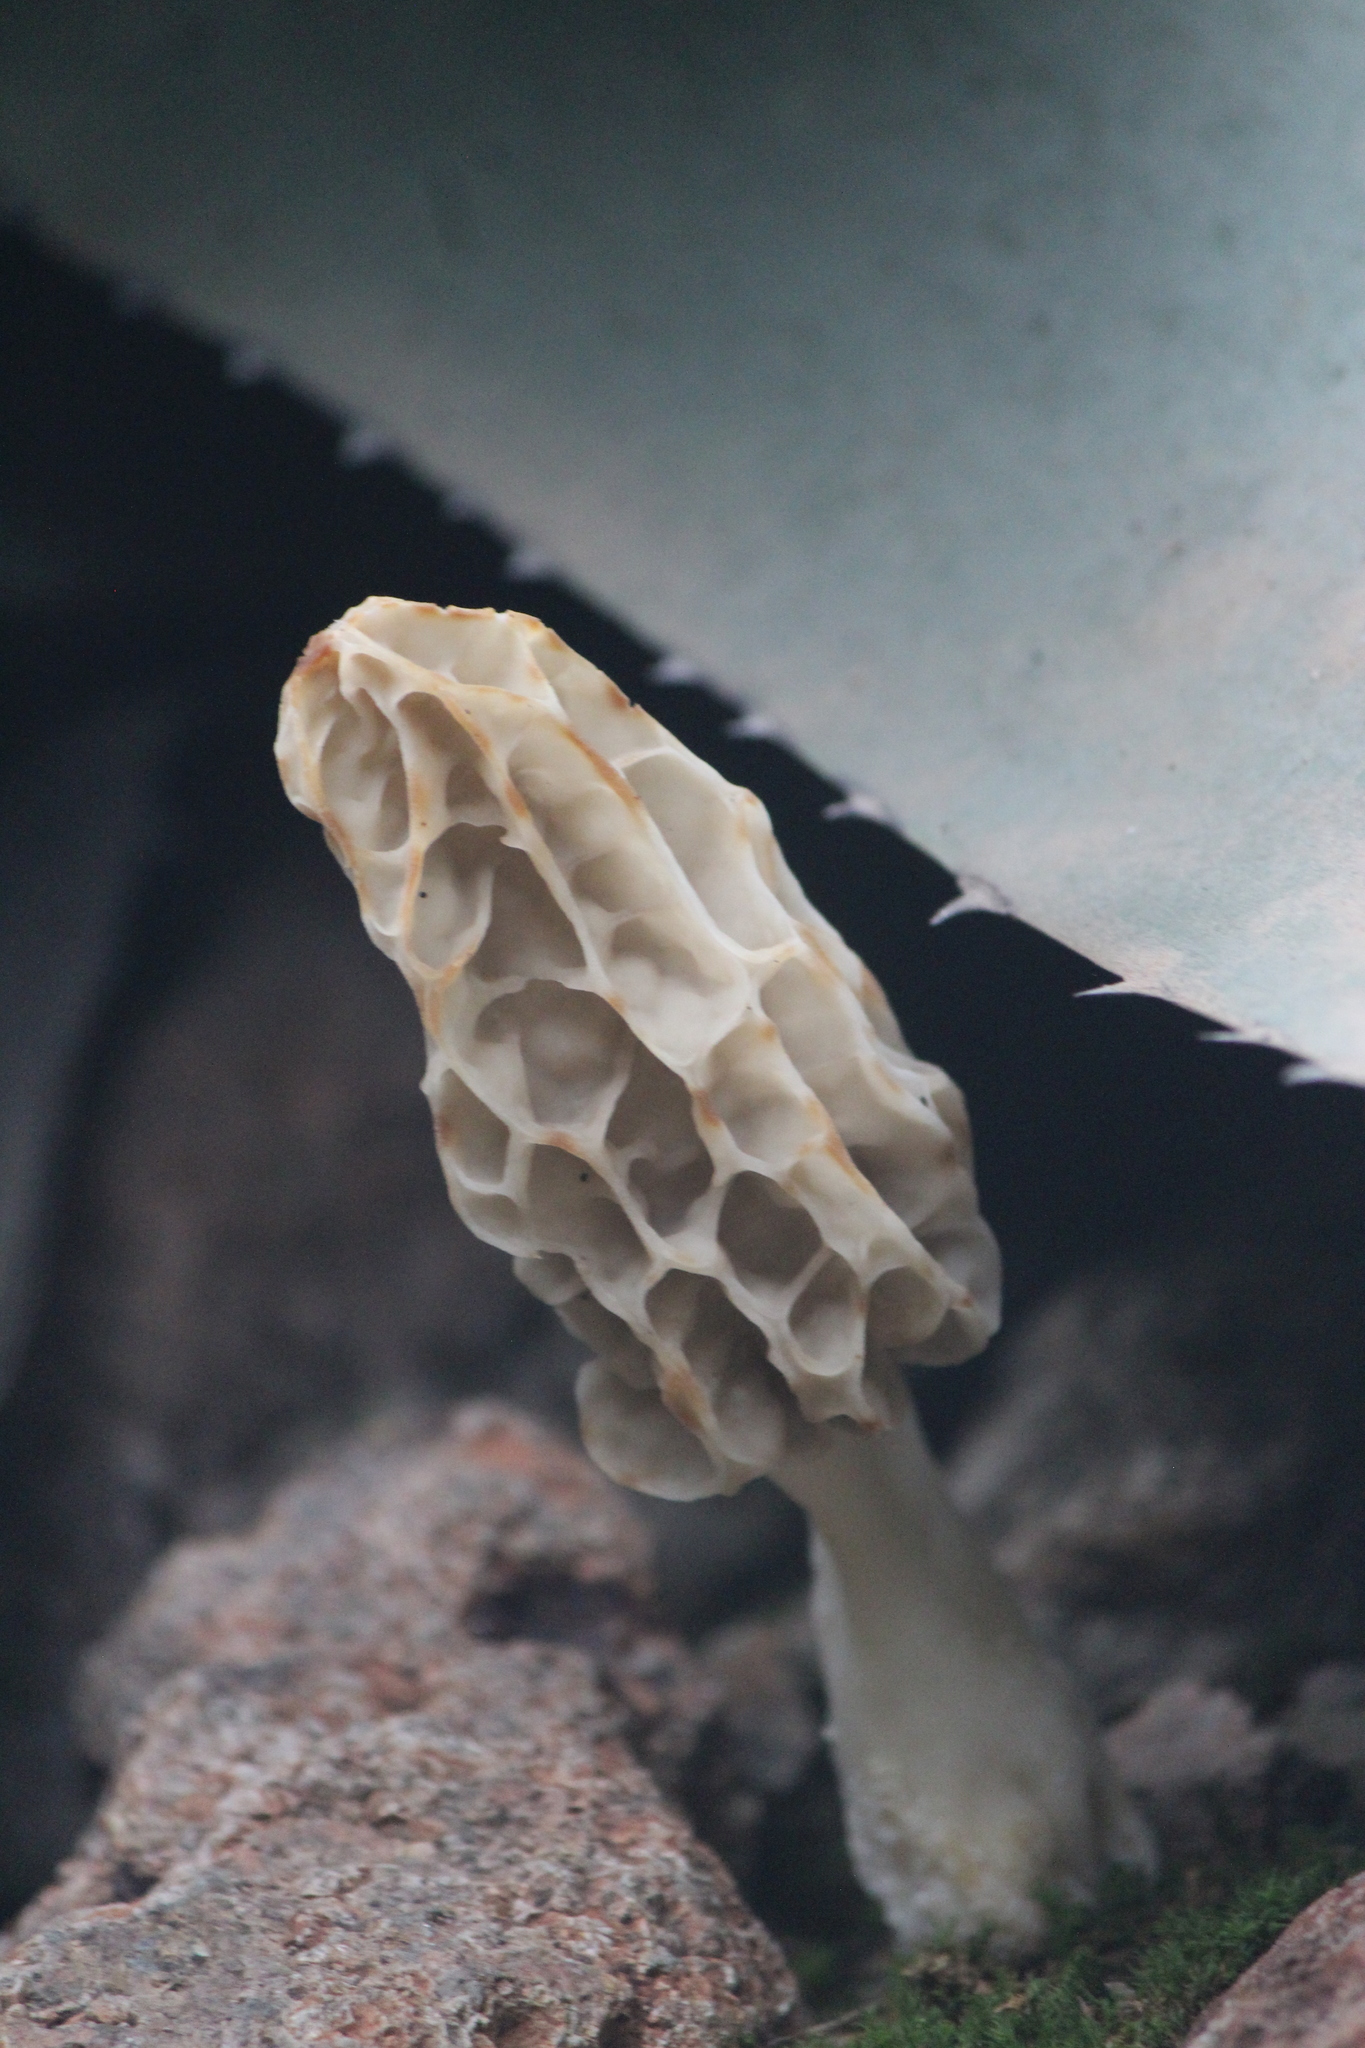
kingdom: Fungi
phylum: Ascomycota
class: Pezizomycetes
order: Pezizales
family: Morchellaceae
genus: Morchella
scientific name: Morchella rufobrunnea
